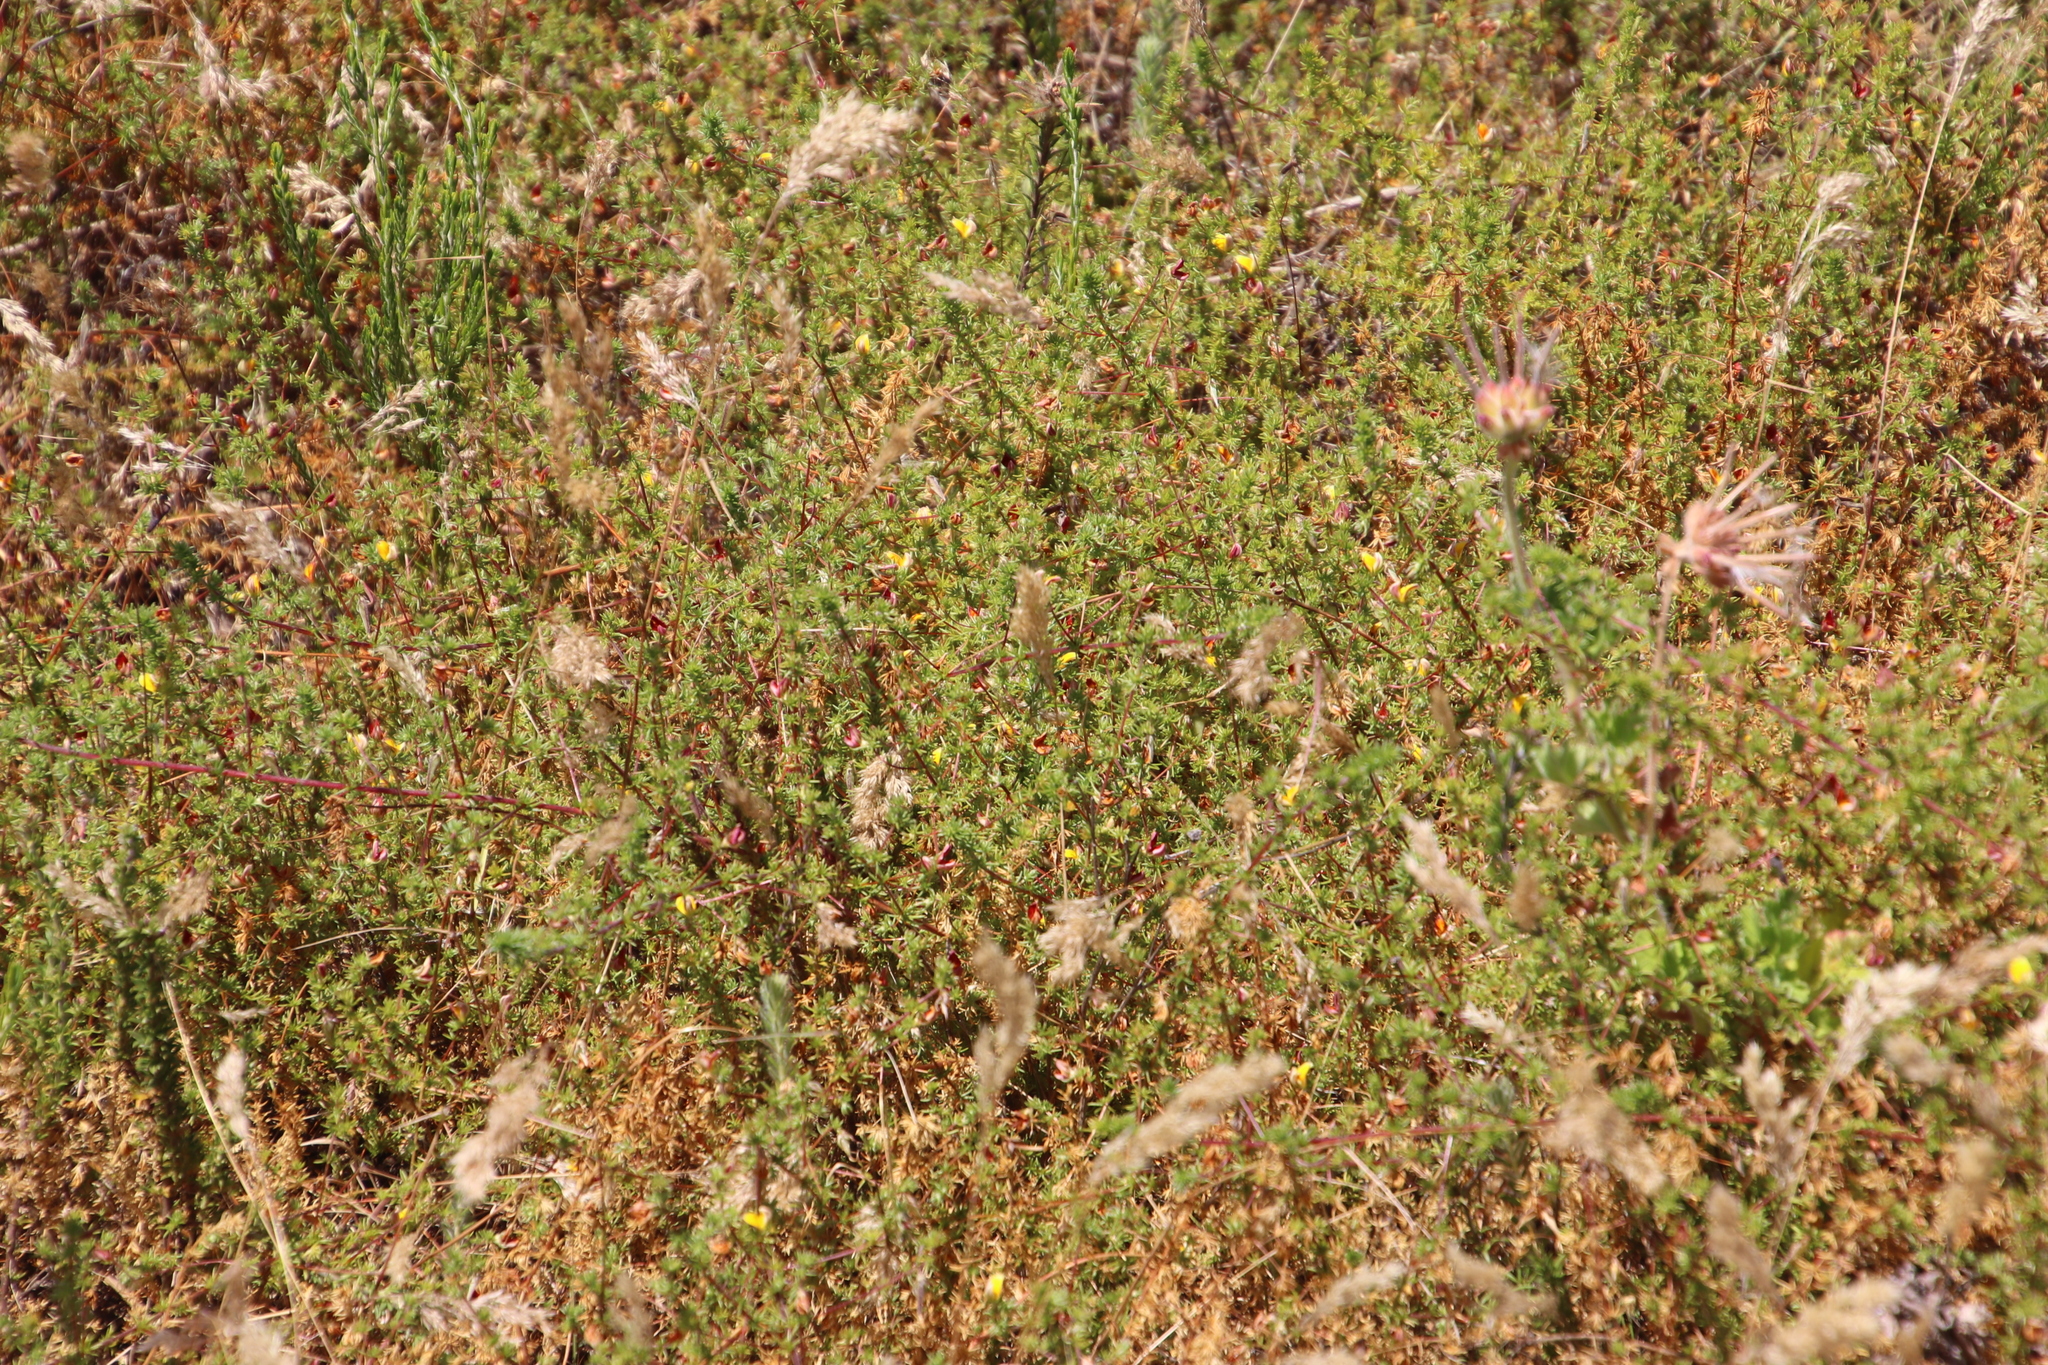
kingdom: Plantae
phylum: Tracheophyta
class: Magnoliopsida
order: Fabales
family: Fabaceae
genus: Aspalathus
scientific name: Aspalathus retroflexa
